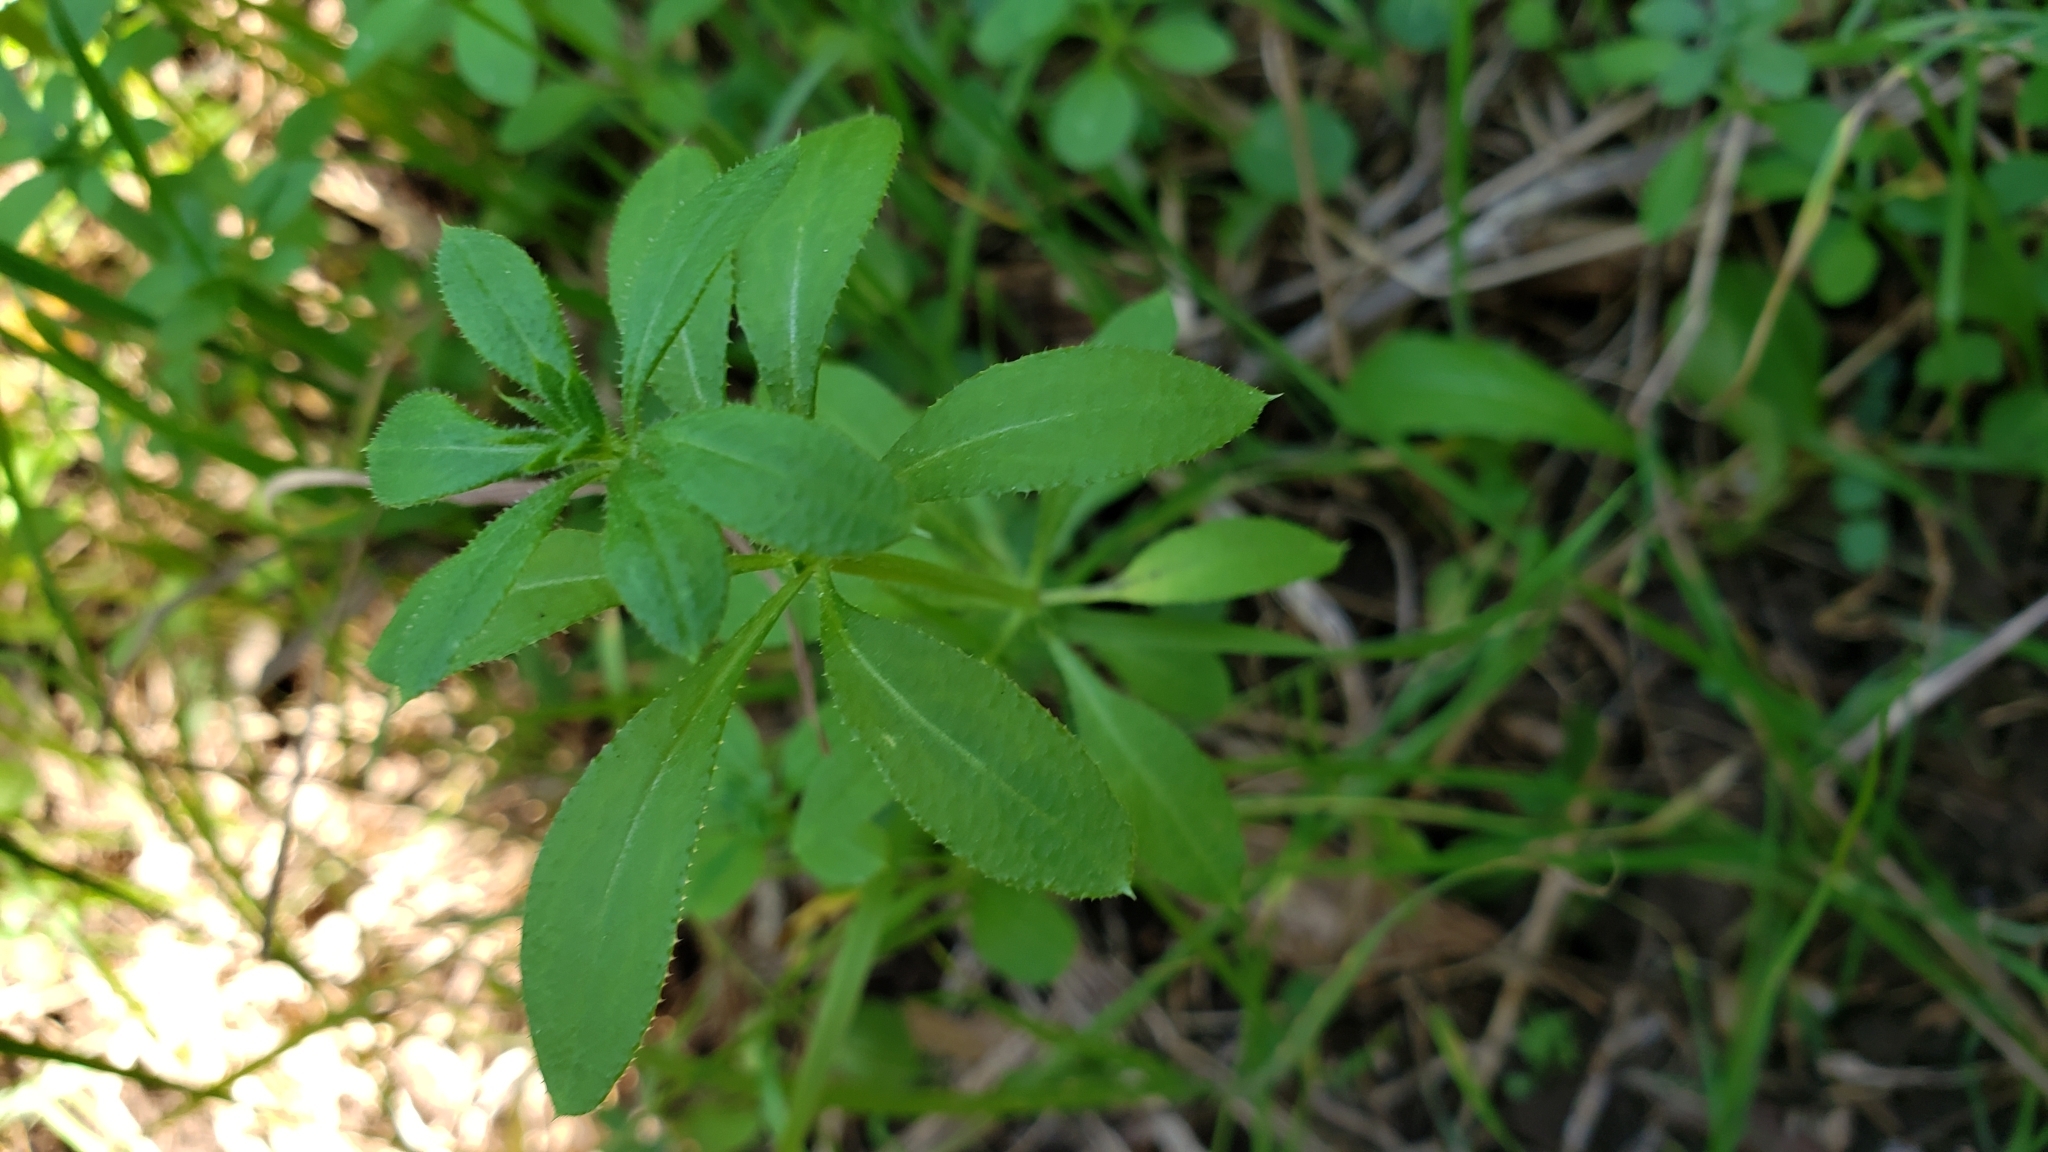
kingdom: Plantae
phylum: Tracheophyta
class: Magnoliopsida
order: Gentianales
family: Rubiaceae
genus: Galium
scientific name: Galium aparine
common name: Cleavers
